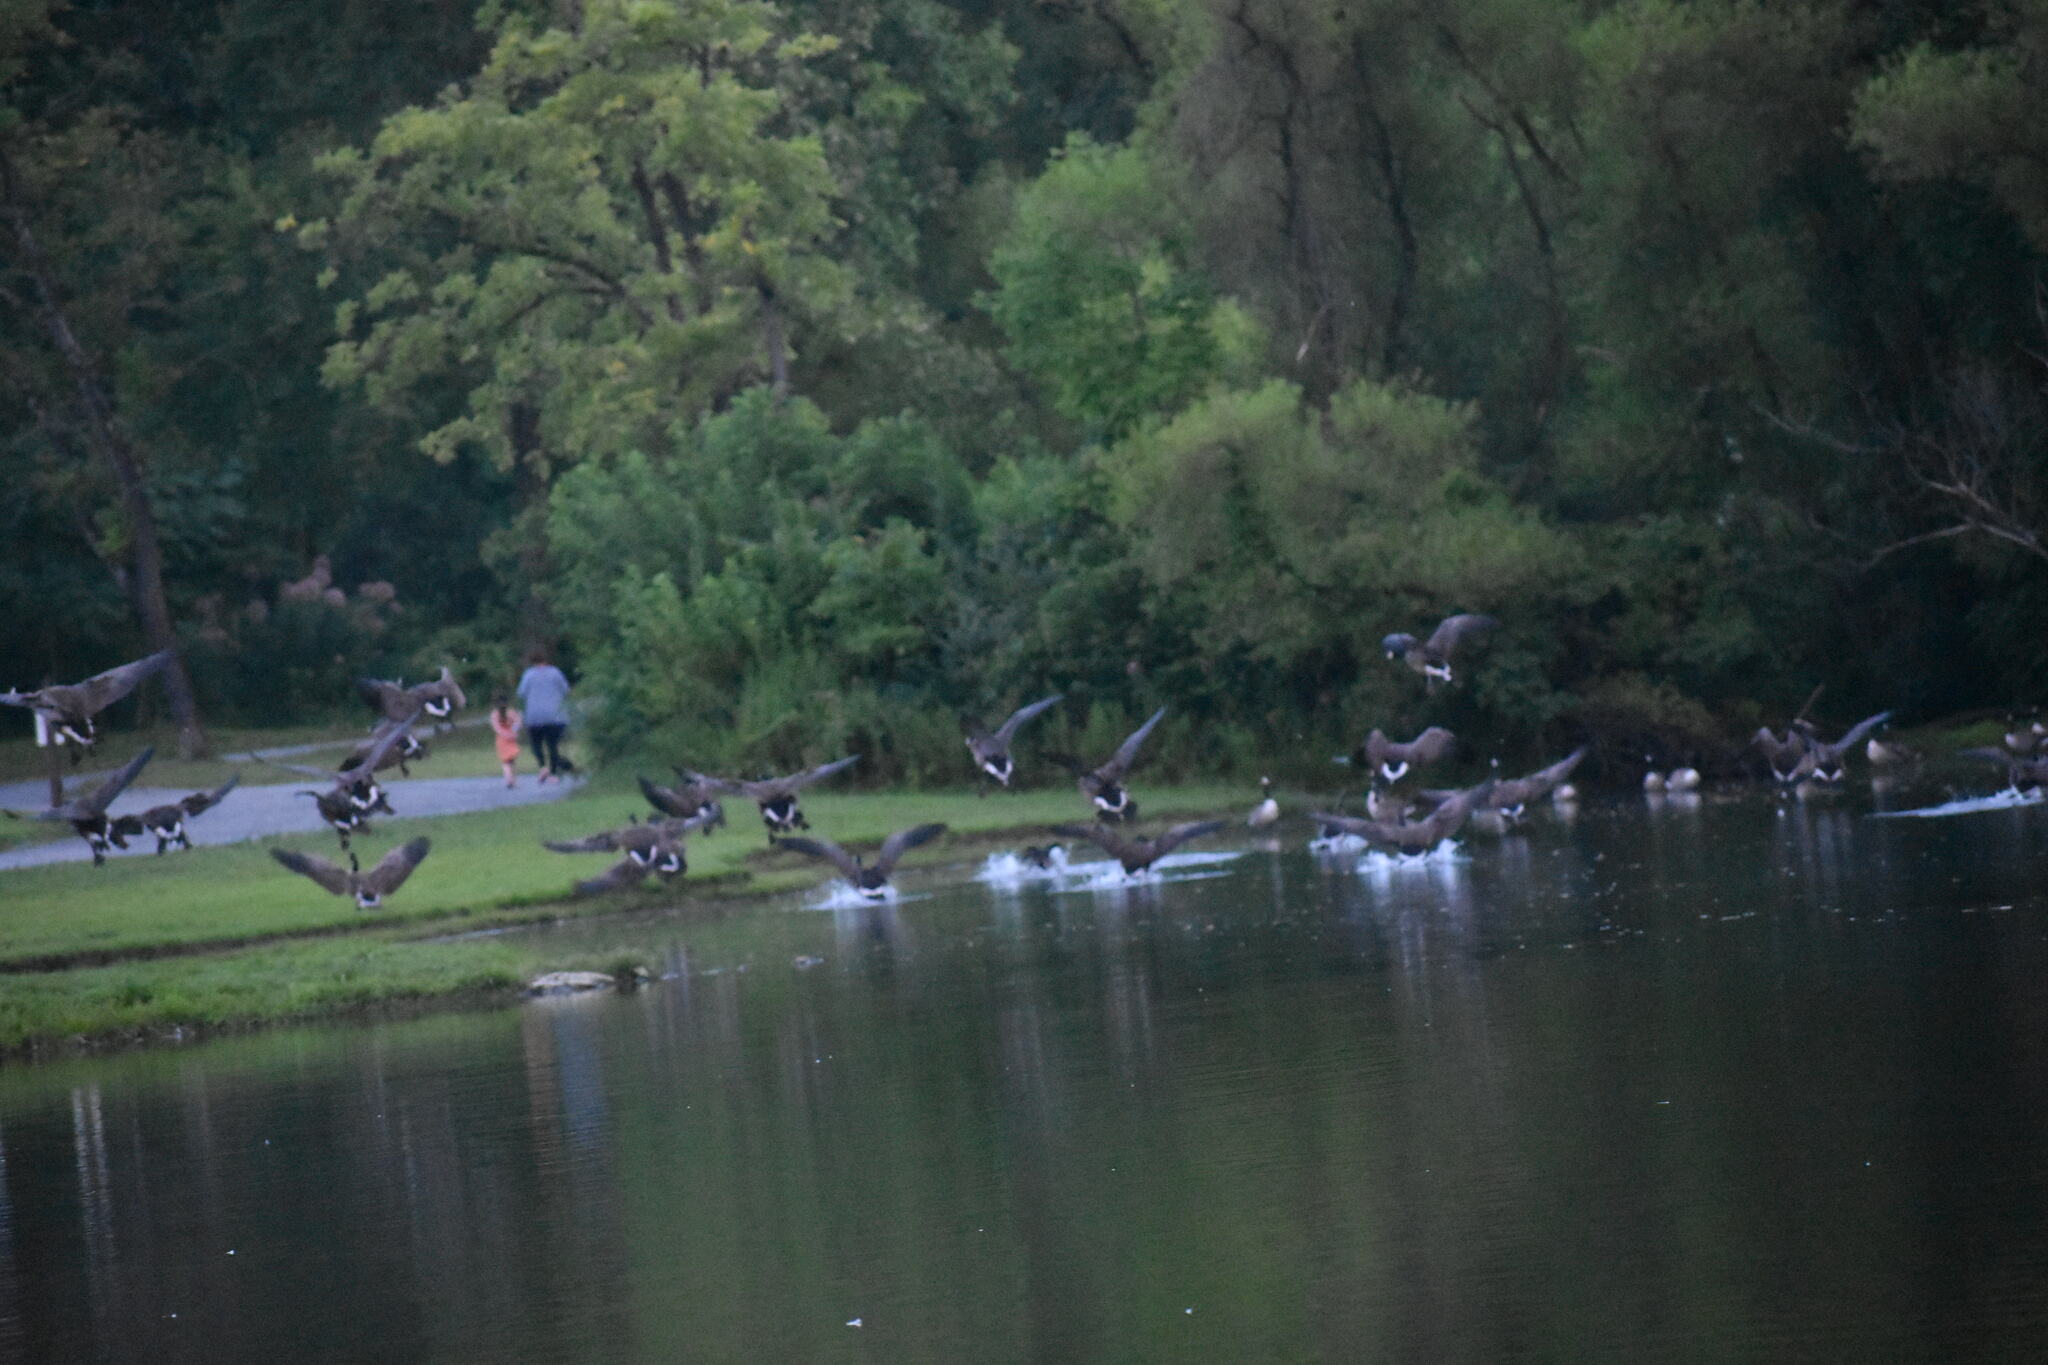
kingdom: Animalia
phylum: Chordata
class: Aves
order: Anseriformes
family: Anatidae
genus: Branta
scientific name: Branta canadensis
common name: Canada goose
